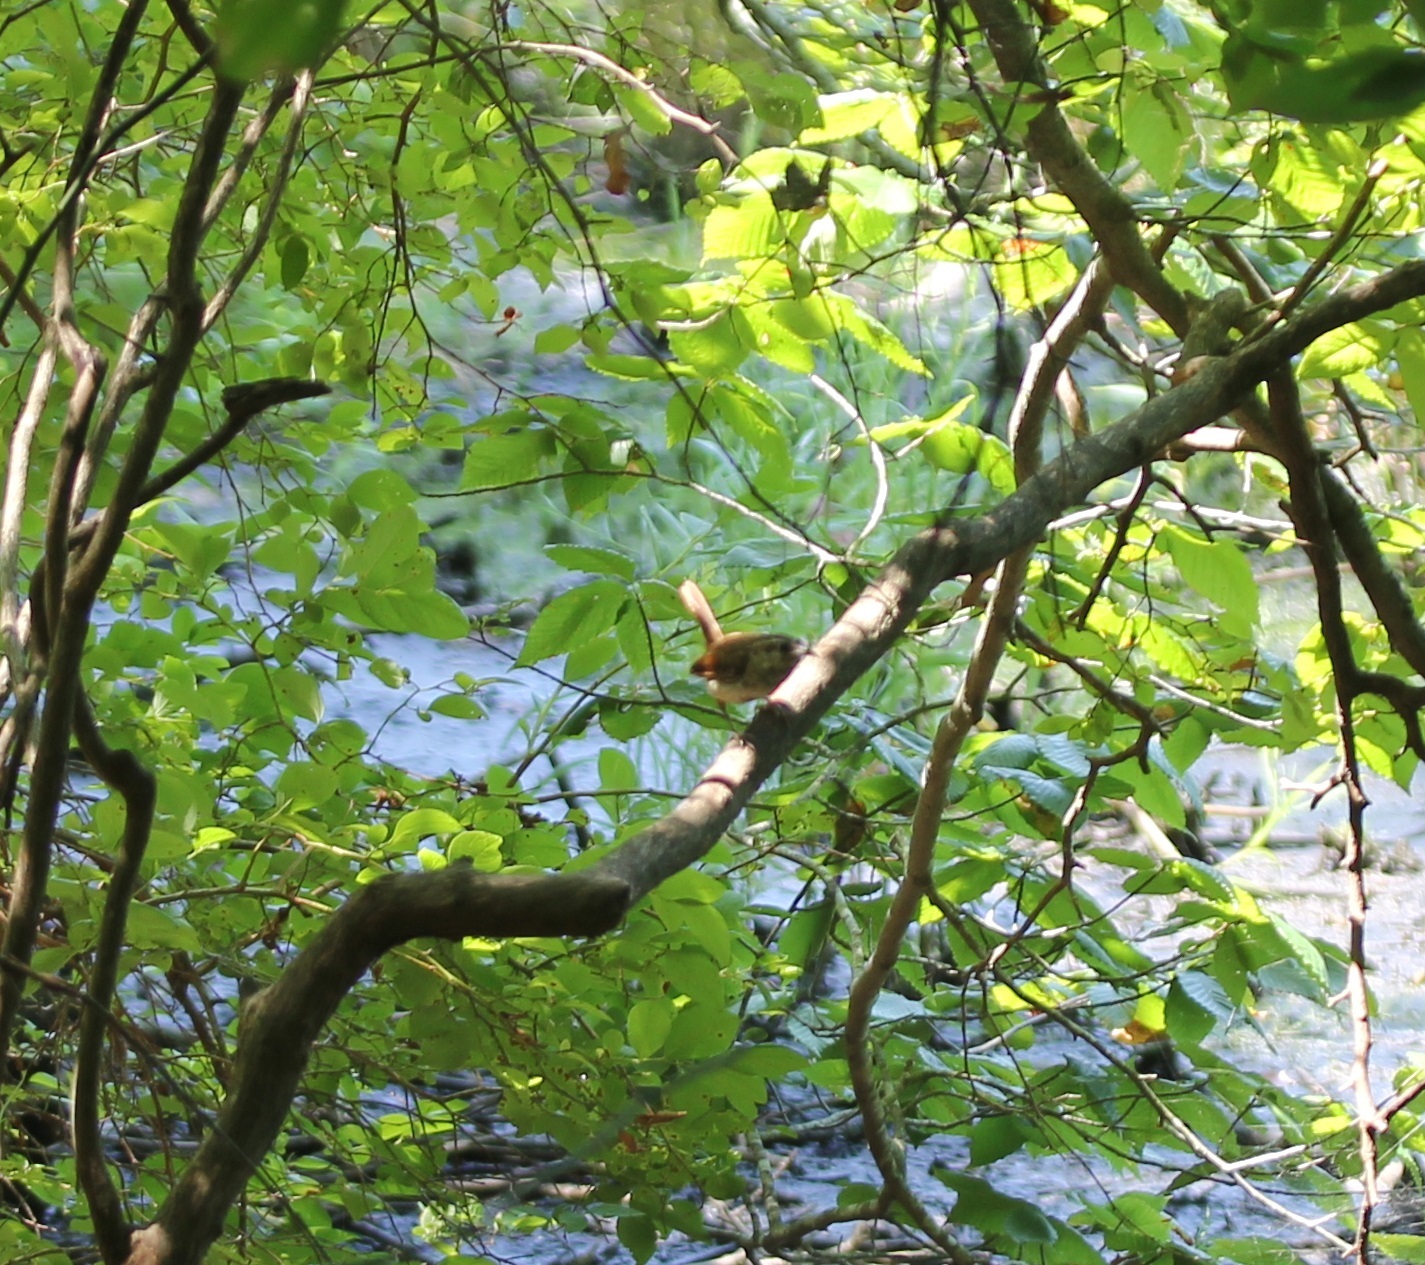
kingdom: Animalia
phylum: Chordata
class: Aves
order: Passeriformes
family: Troglodytidae
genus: Thryothorus
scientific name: Thryothorus ludovicianus
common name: Carolina wren
